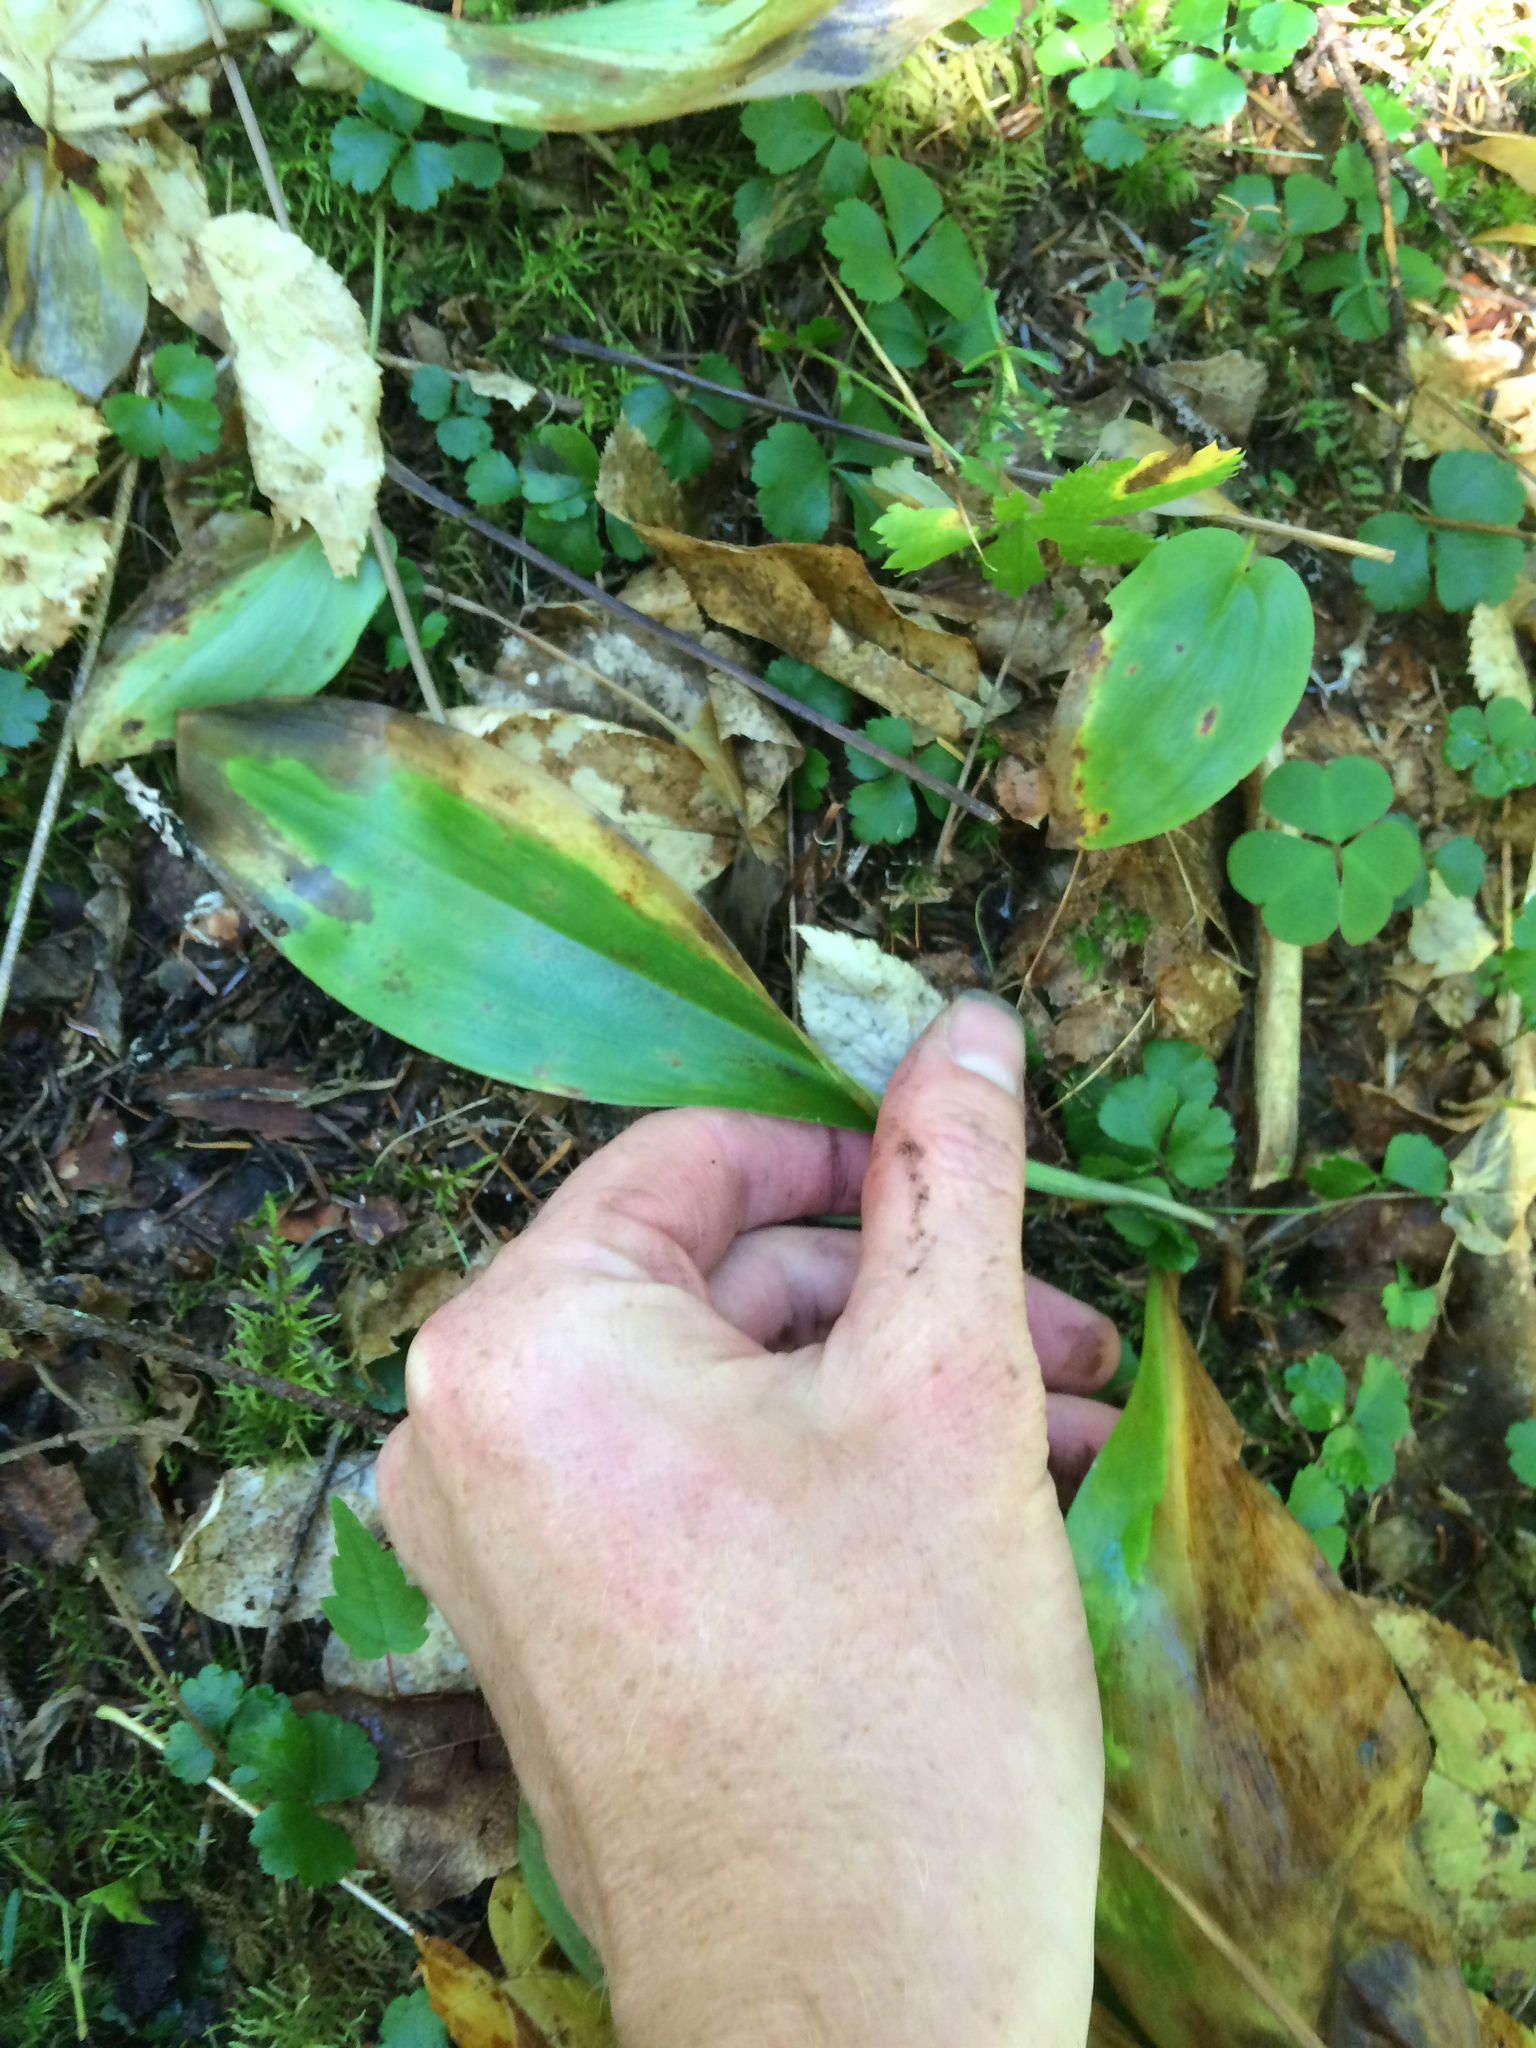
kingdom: Plantae
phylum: Tracheophyta
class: Liliopsida
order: Liliales
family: Liliaceae
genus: Clintonia
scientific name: Clintonia borealis
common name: Yellow clintonia
